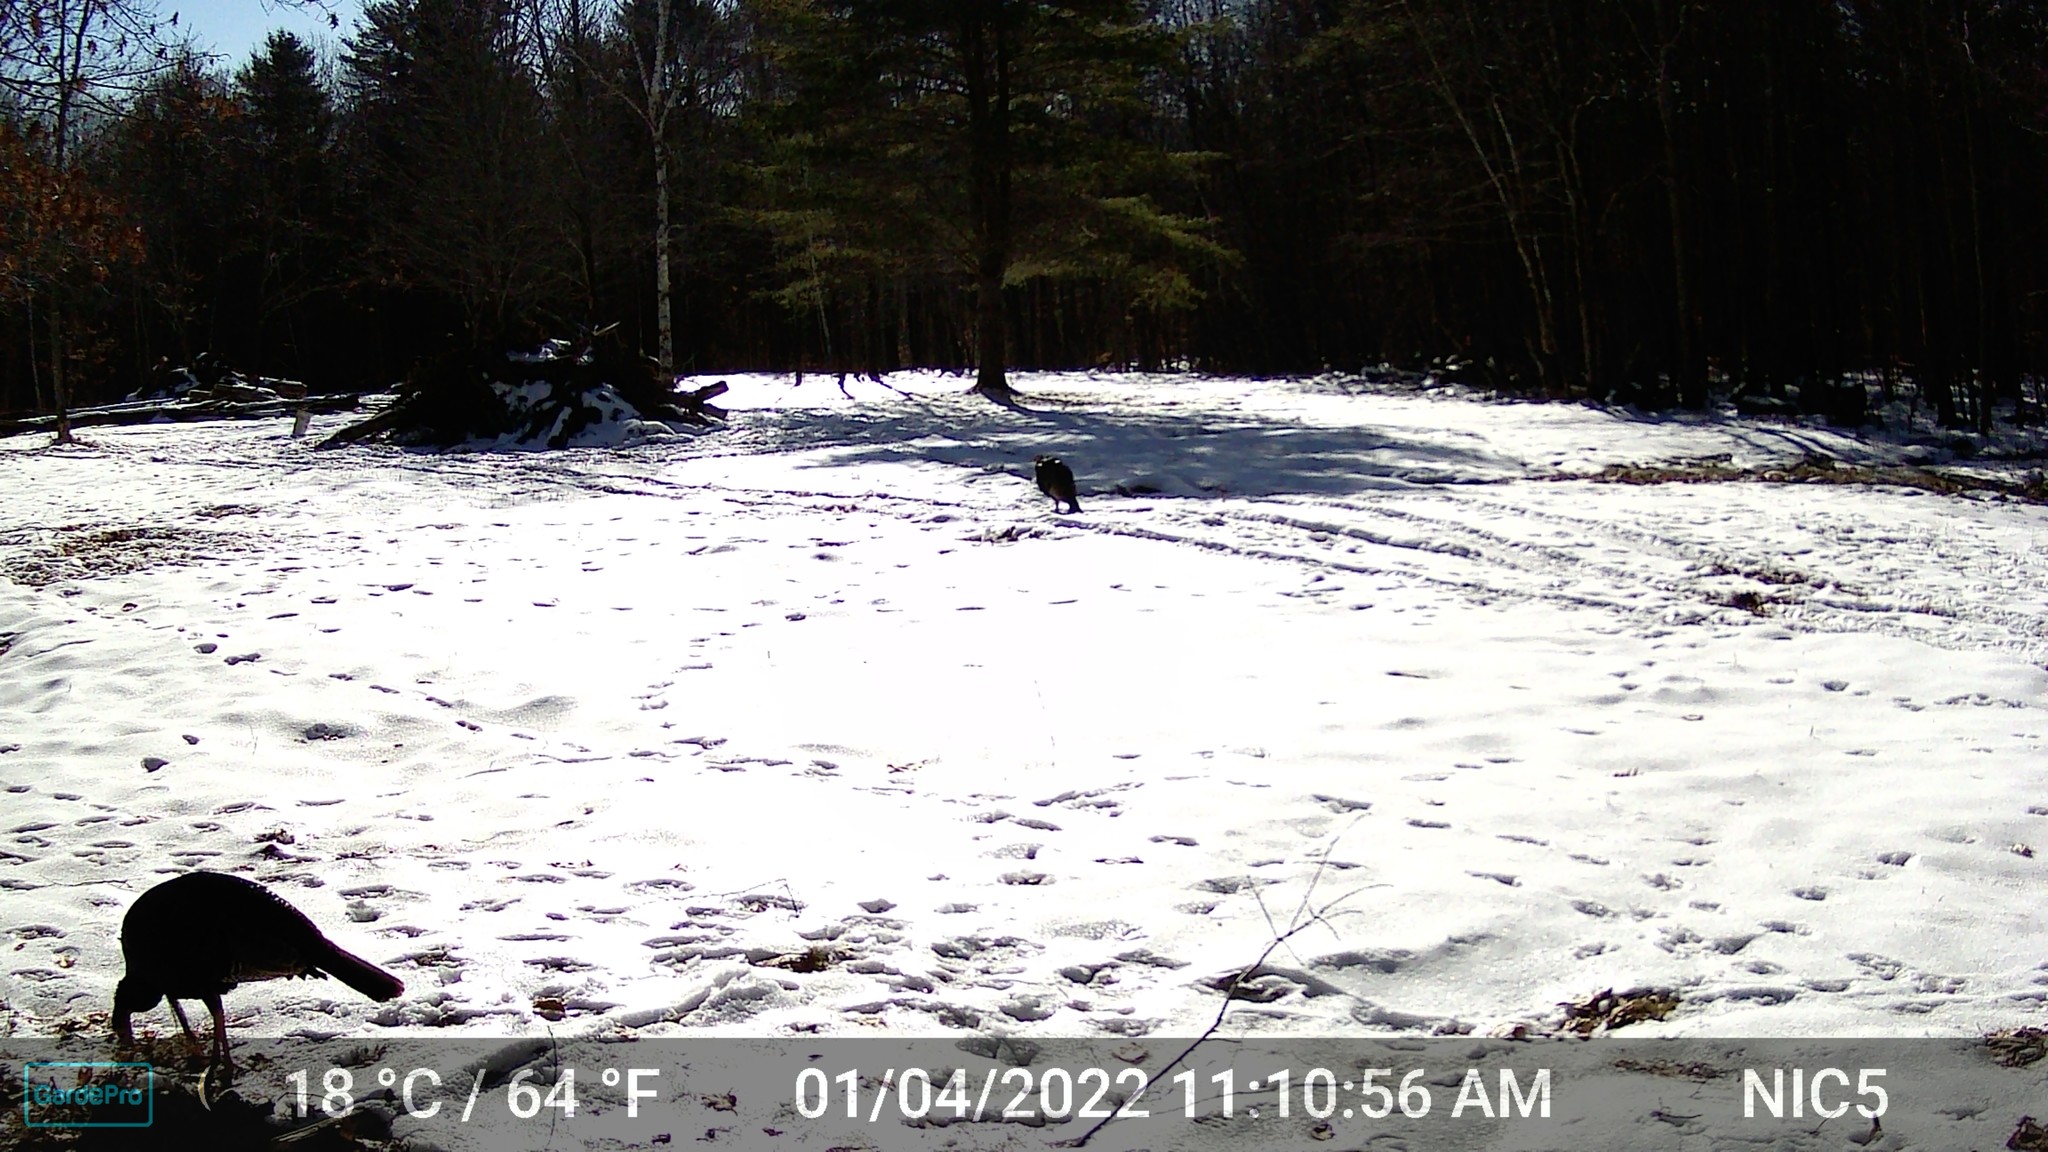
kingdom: Animalia
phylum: Chordata
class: Aves
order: Galliformes
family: Phasianidae
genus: Meleagris
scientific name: Meleagris gallopavo
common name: Wild turkey
